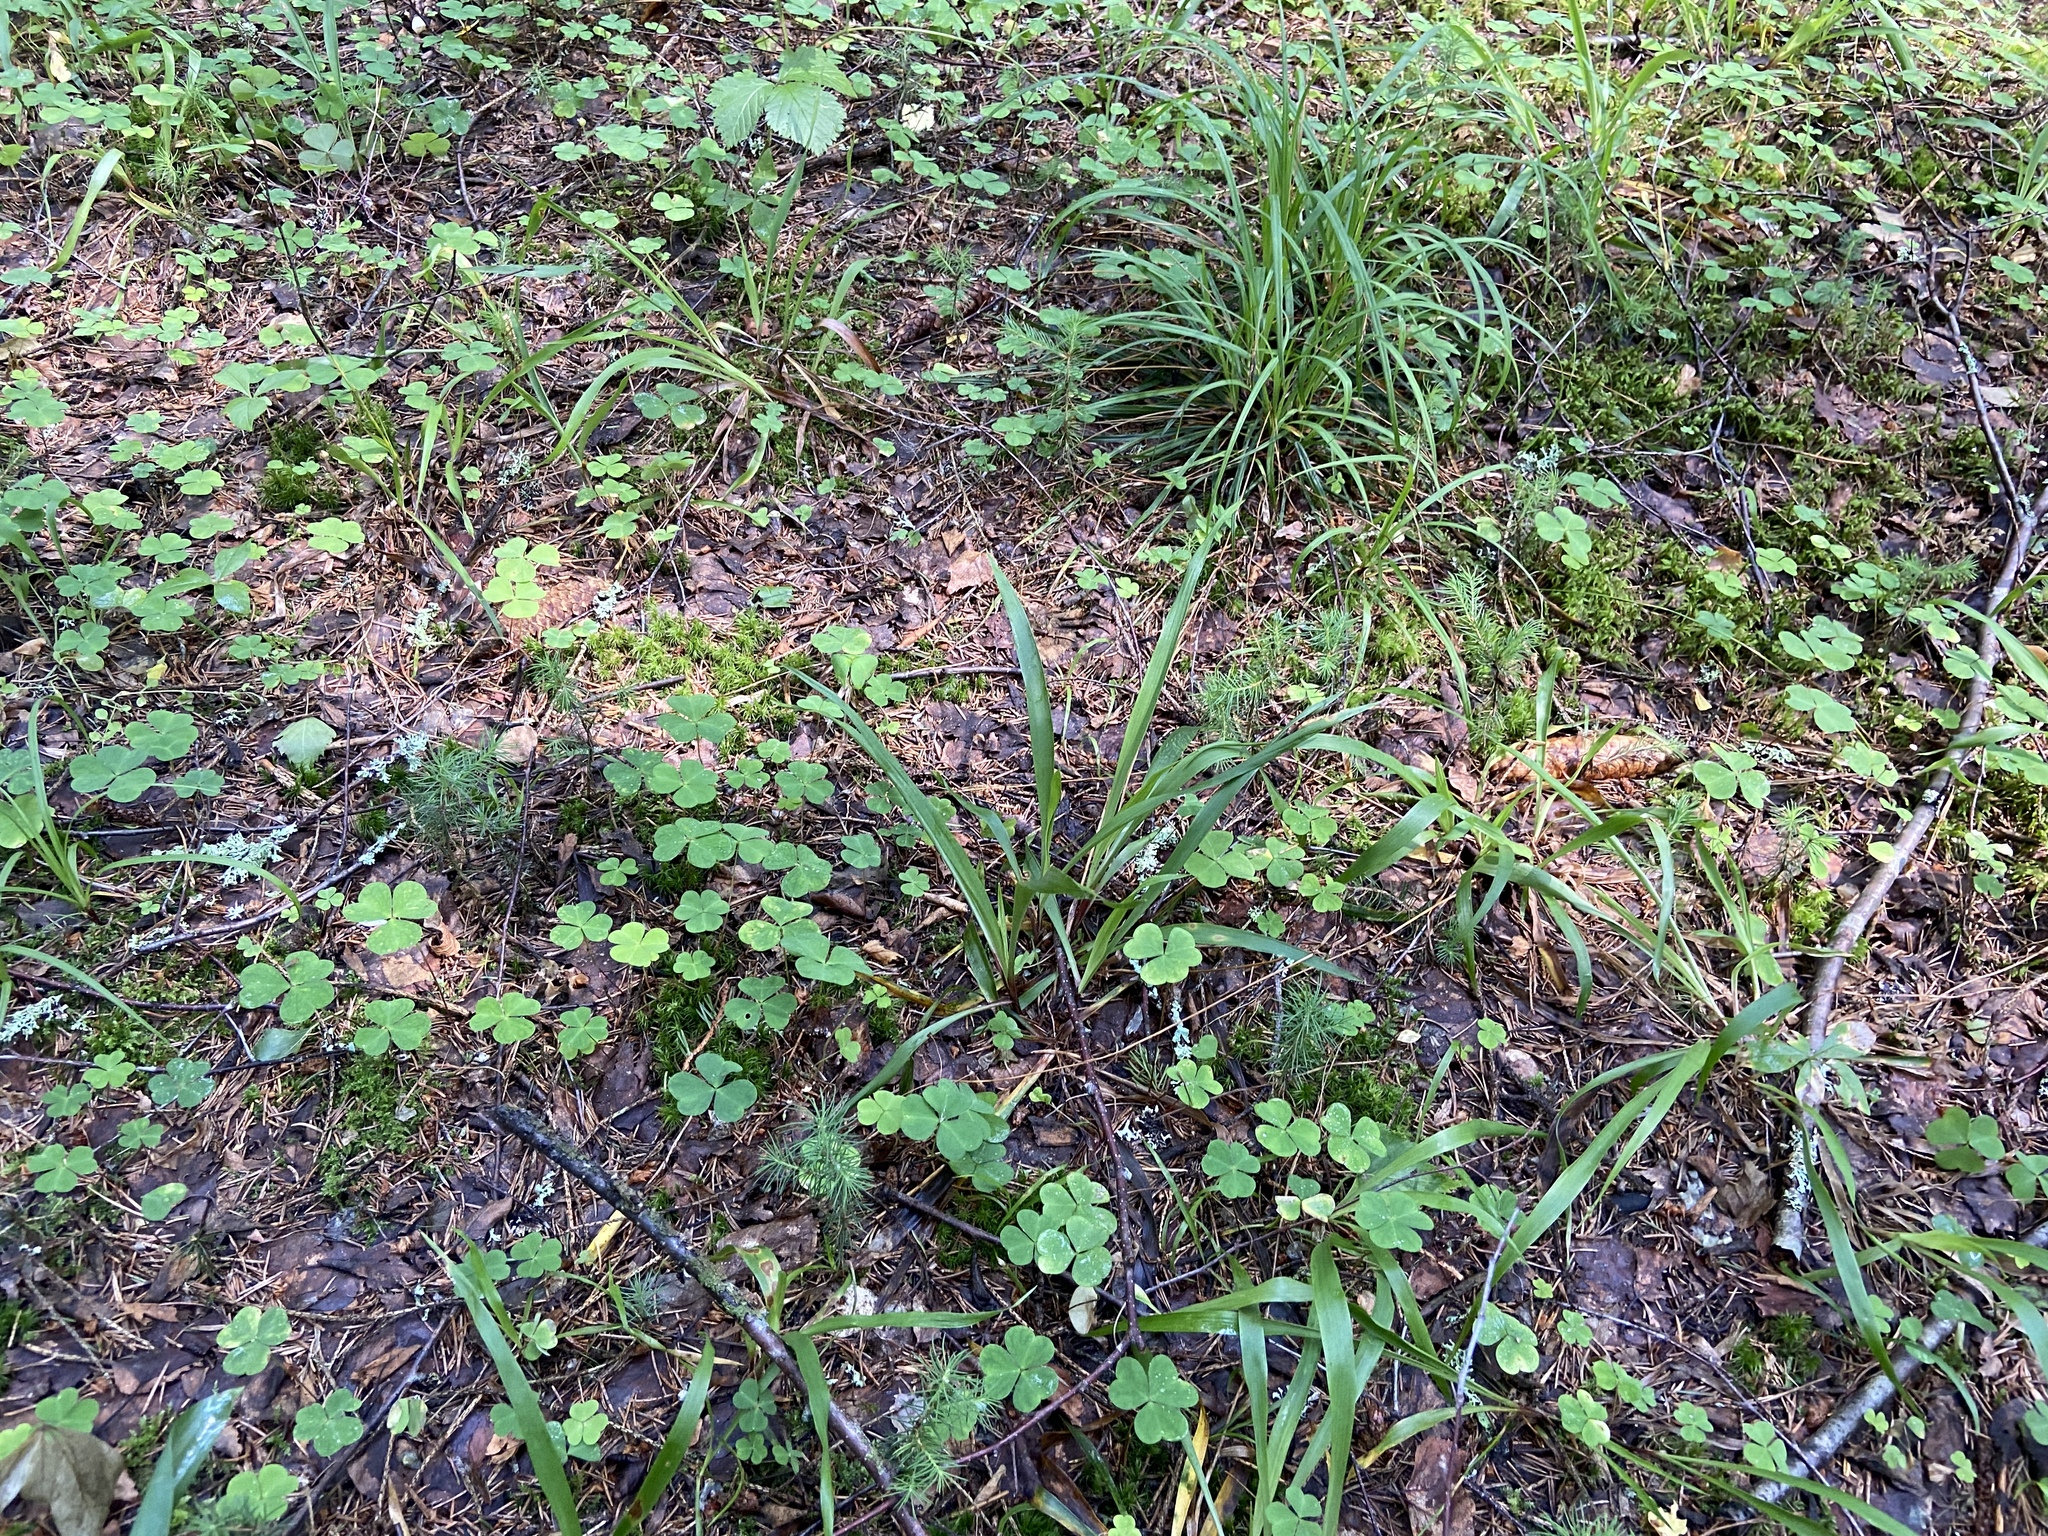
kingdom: Plantae
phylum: Tracheophyta
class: Liliopsida
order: Poales
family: Juncaceae
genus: Luzula
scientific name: Luzula pilosa
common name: Hairy wood-rush
